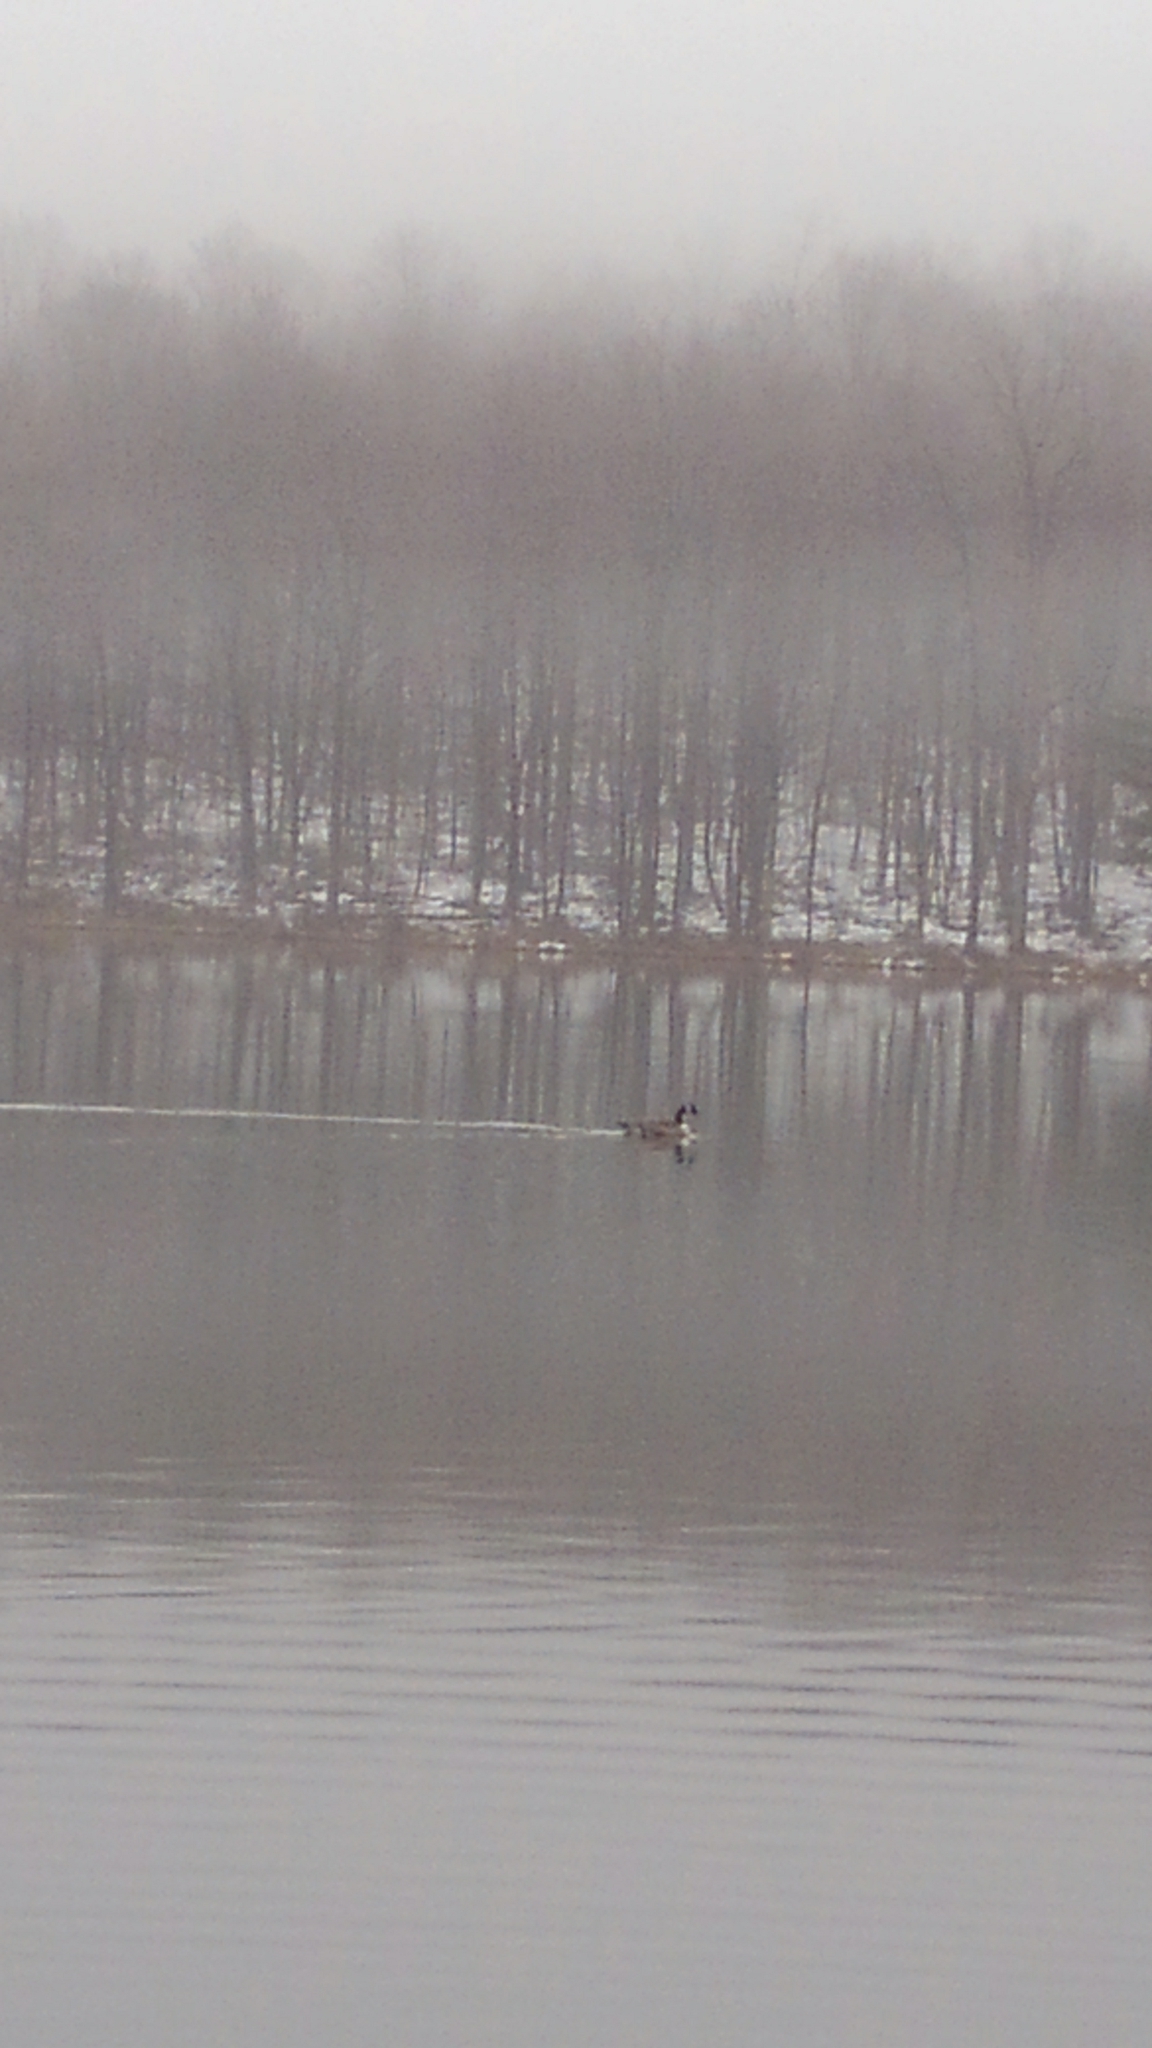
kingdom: Animalia
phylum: Chordata
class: Aves
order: Anseriformes
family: Anatidae
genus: Branta
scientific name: Branta canadensis
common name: Canada goose
